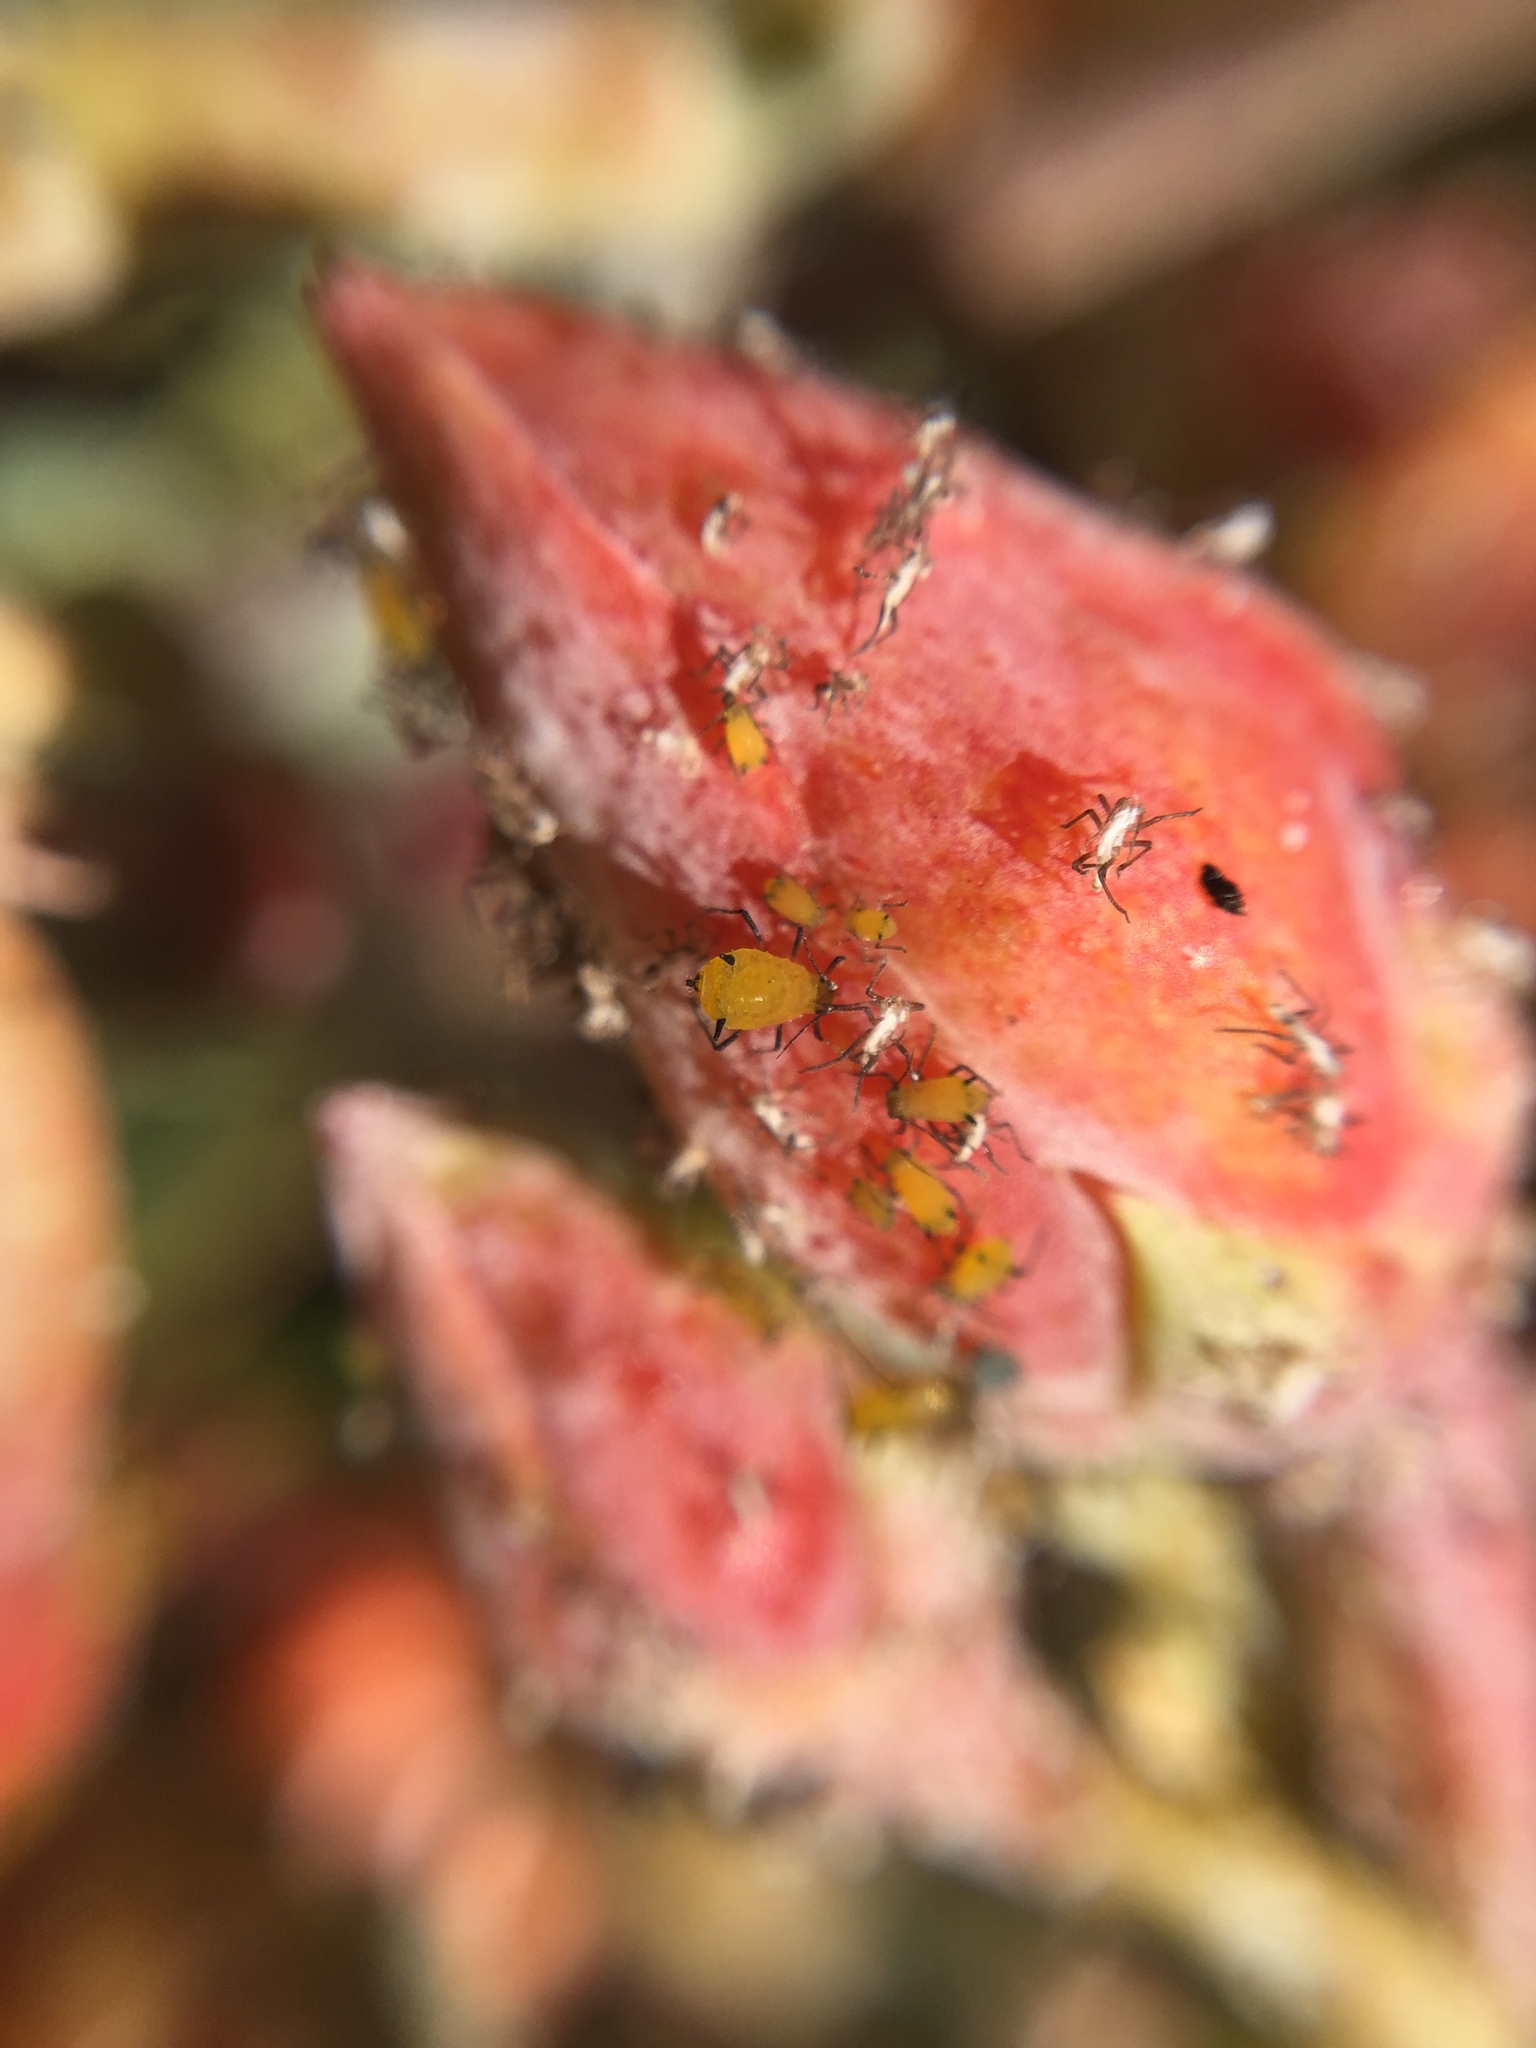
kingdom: Animalia
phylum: Arthropoda
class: Insecta
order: Hemiptera
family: Aphididae
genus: Aphis
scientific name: Aphis nerii
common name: Oleander aphid
